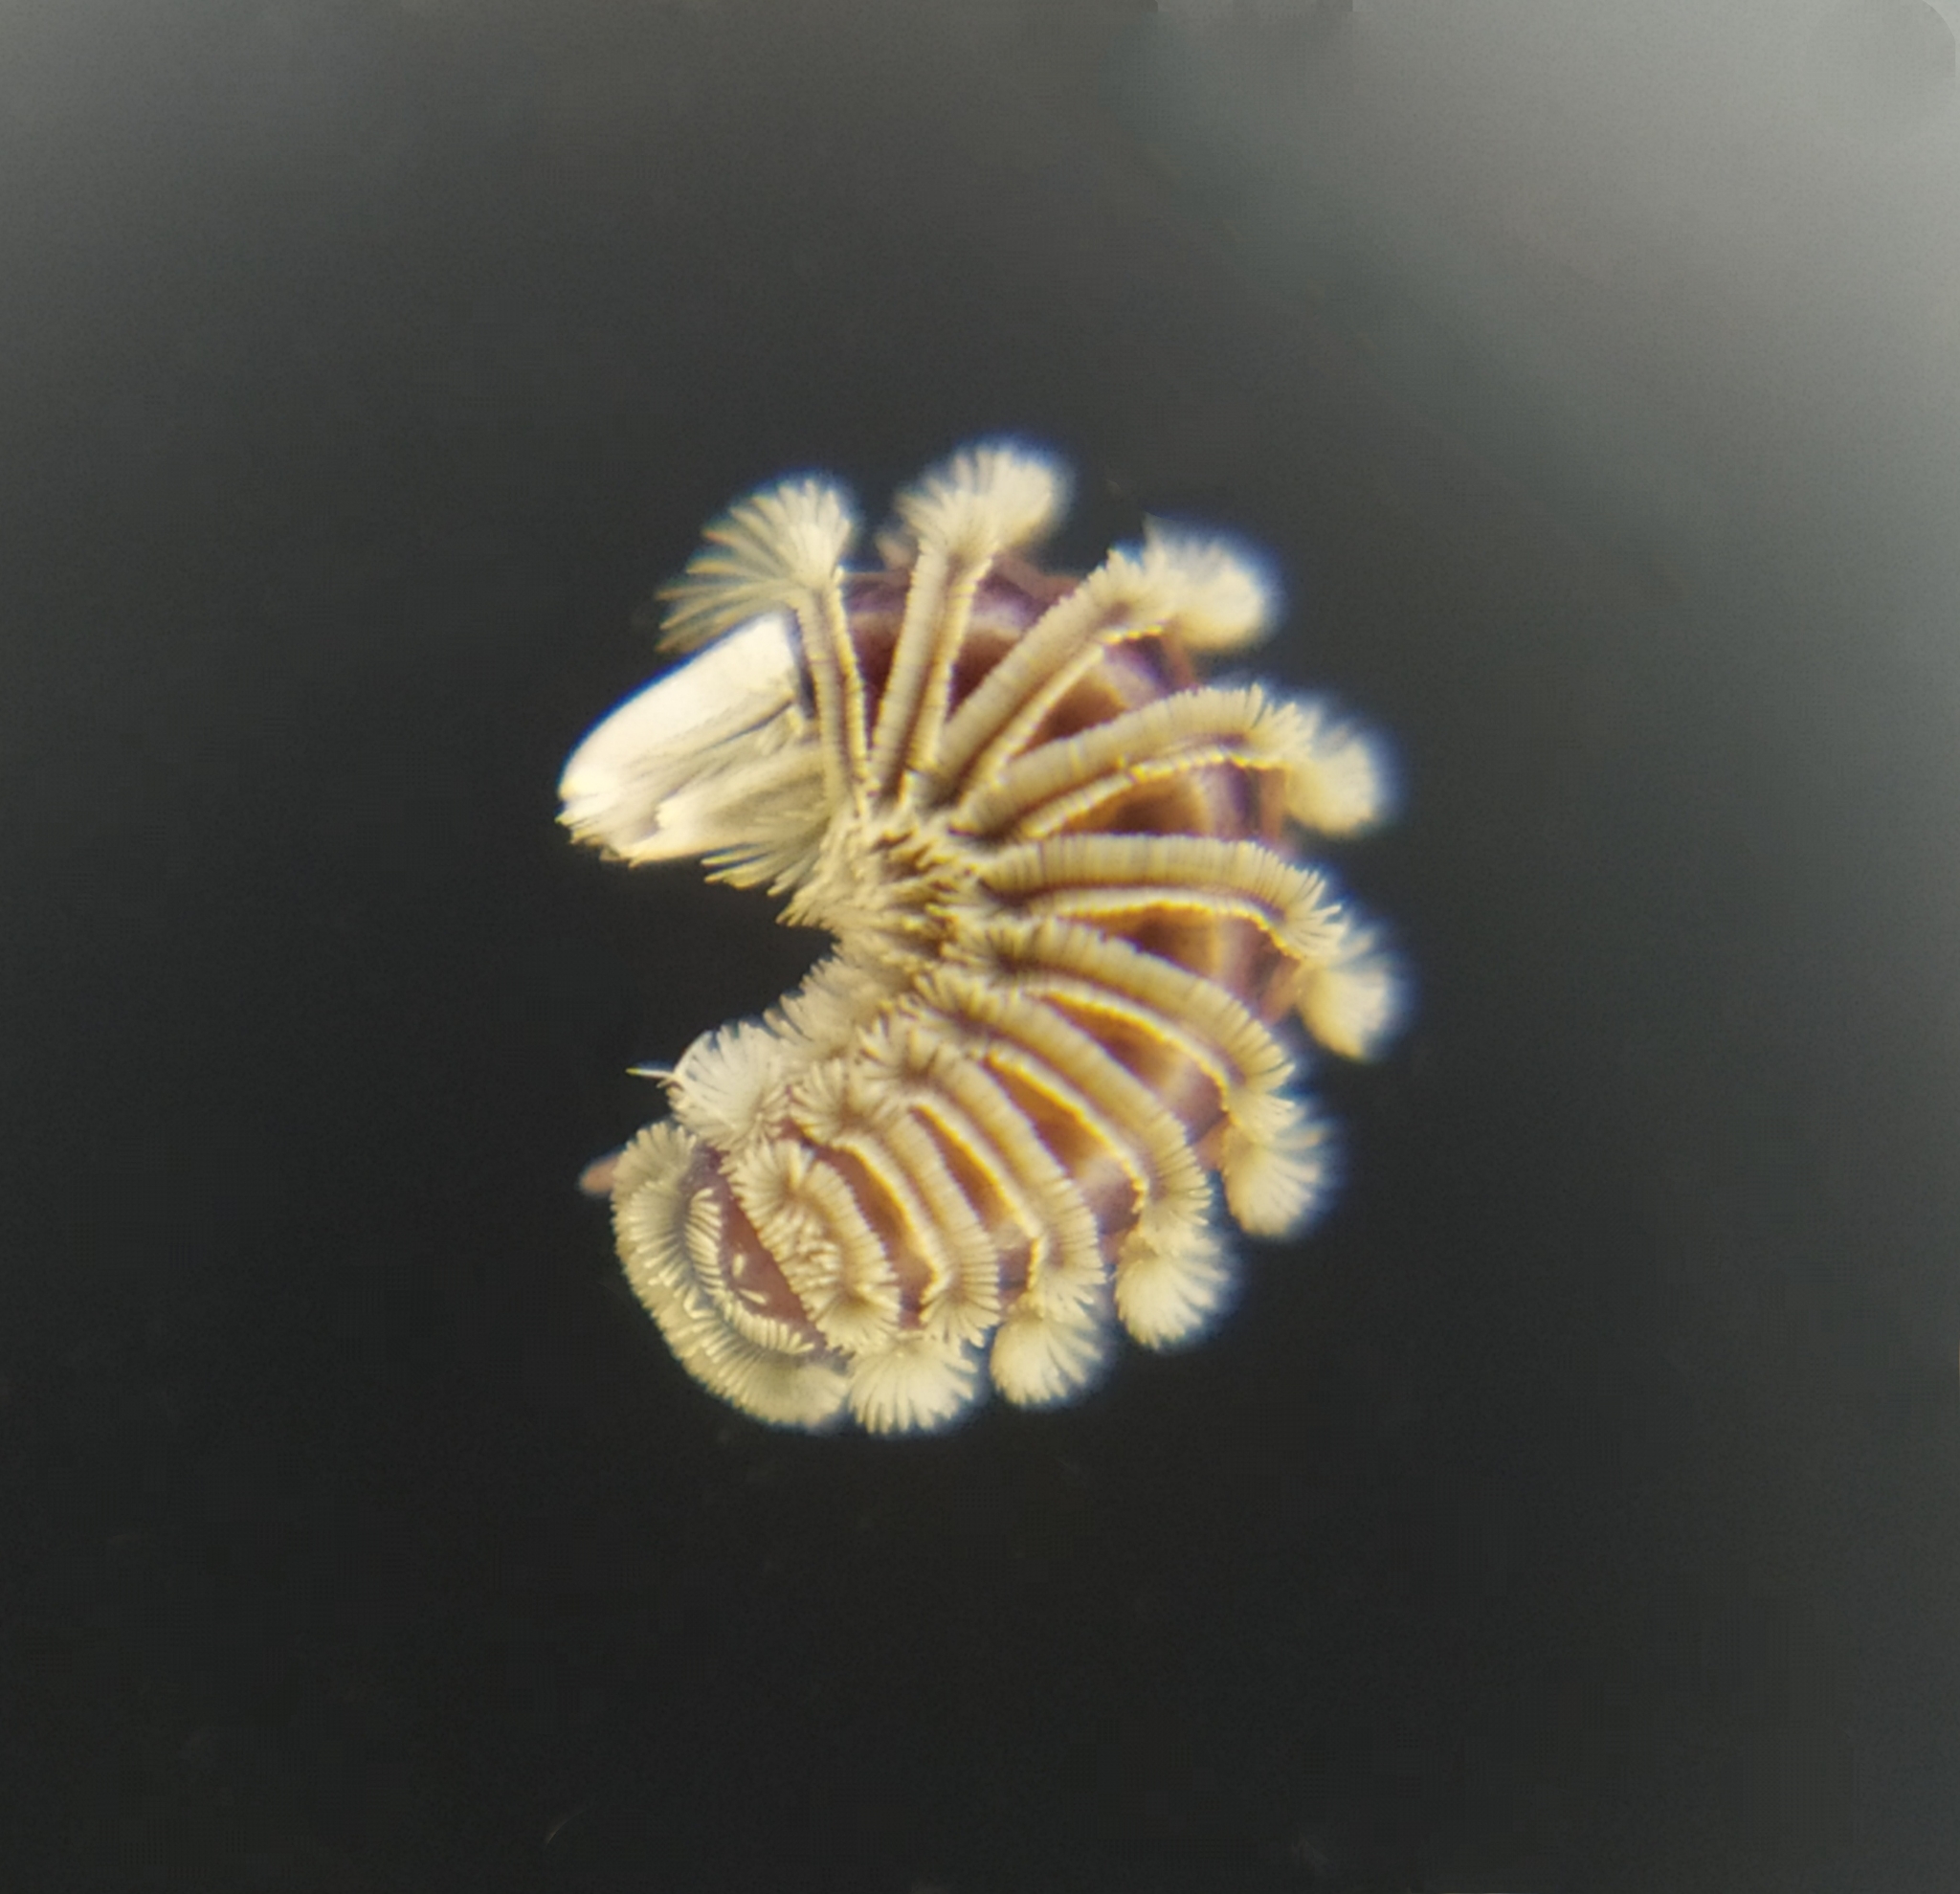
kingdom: Animalia
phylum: Arthropoda
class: Diplopoda
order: Polyxenida
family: Polyxenidae
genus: Polyxenus
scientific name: Polyxenus lagurus
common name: Bristly millipede
